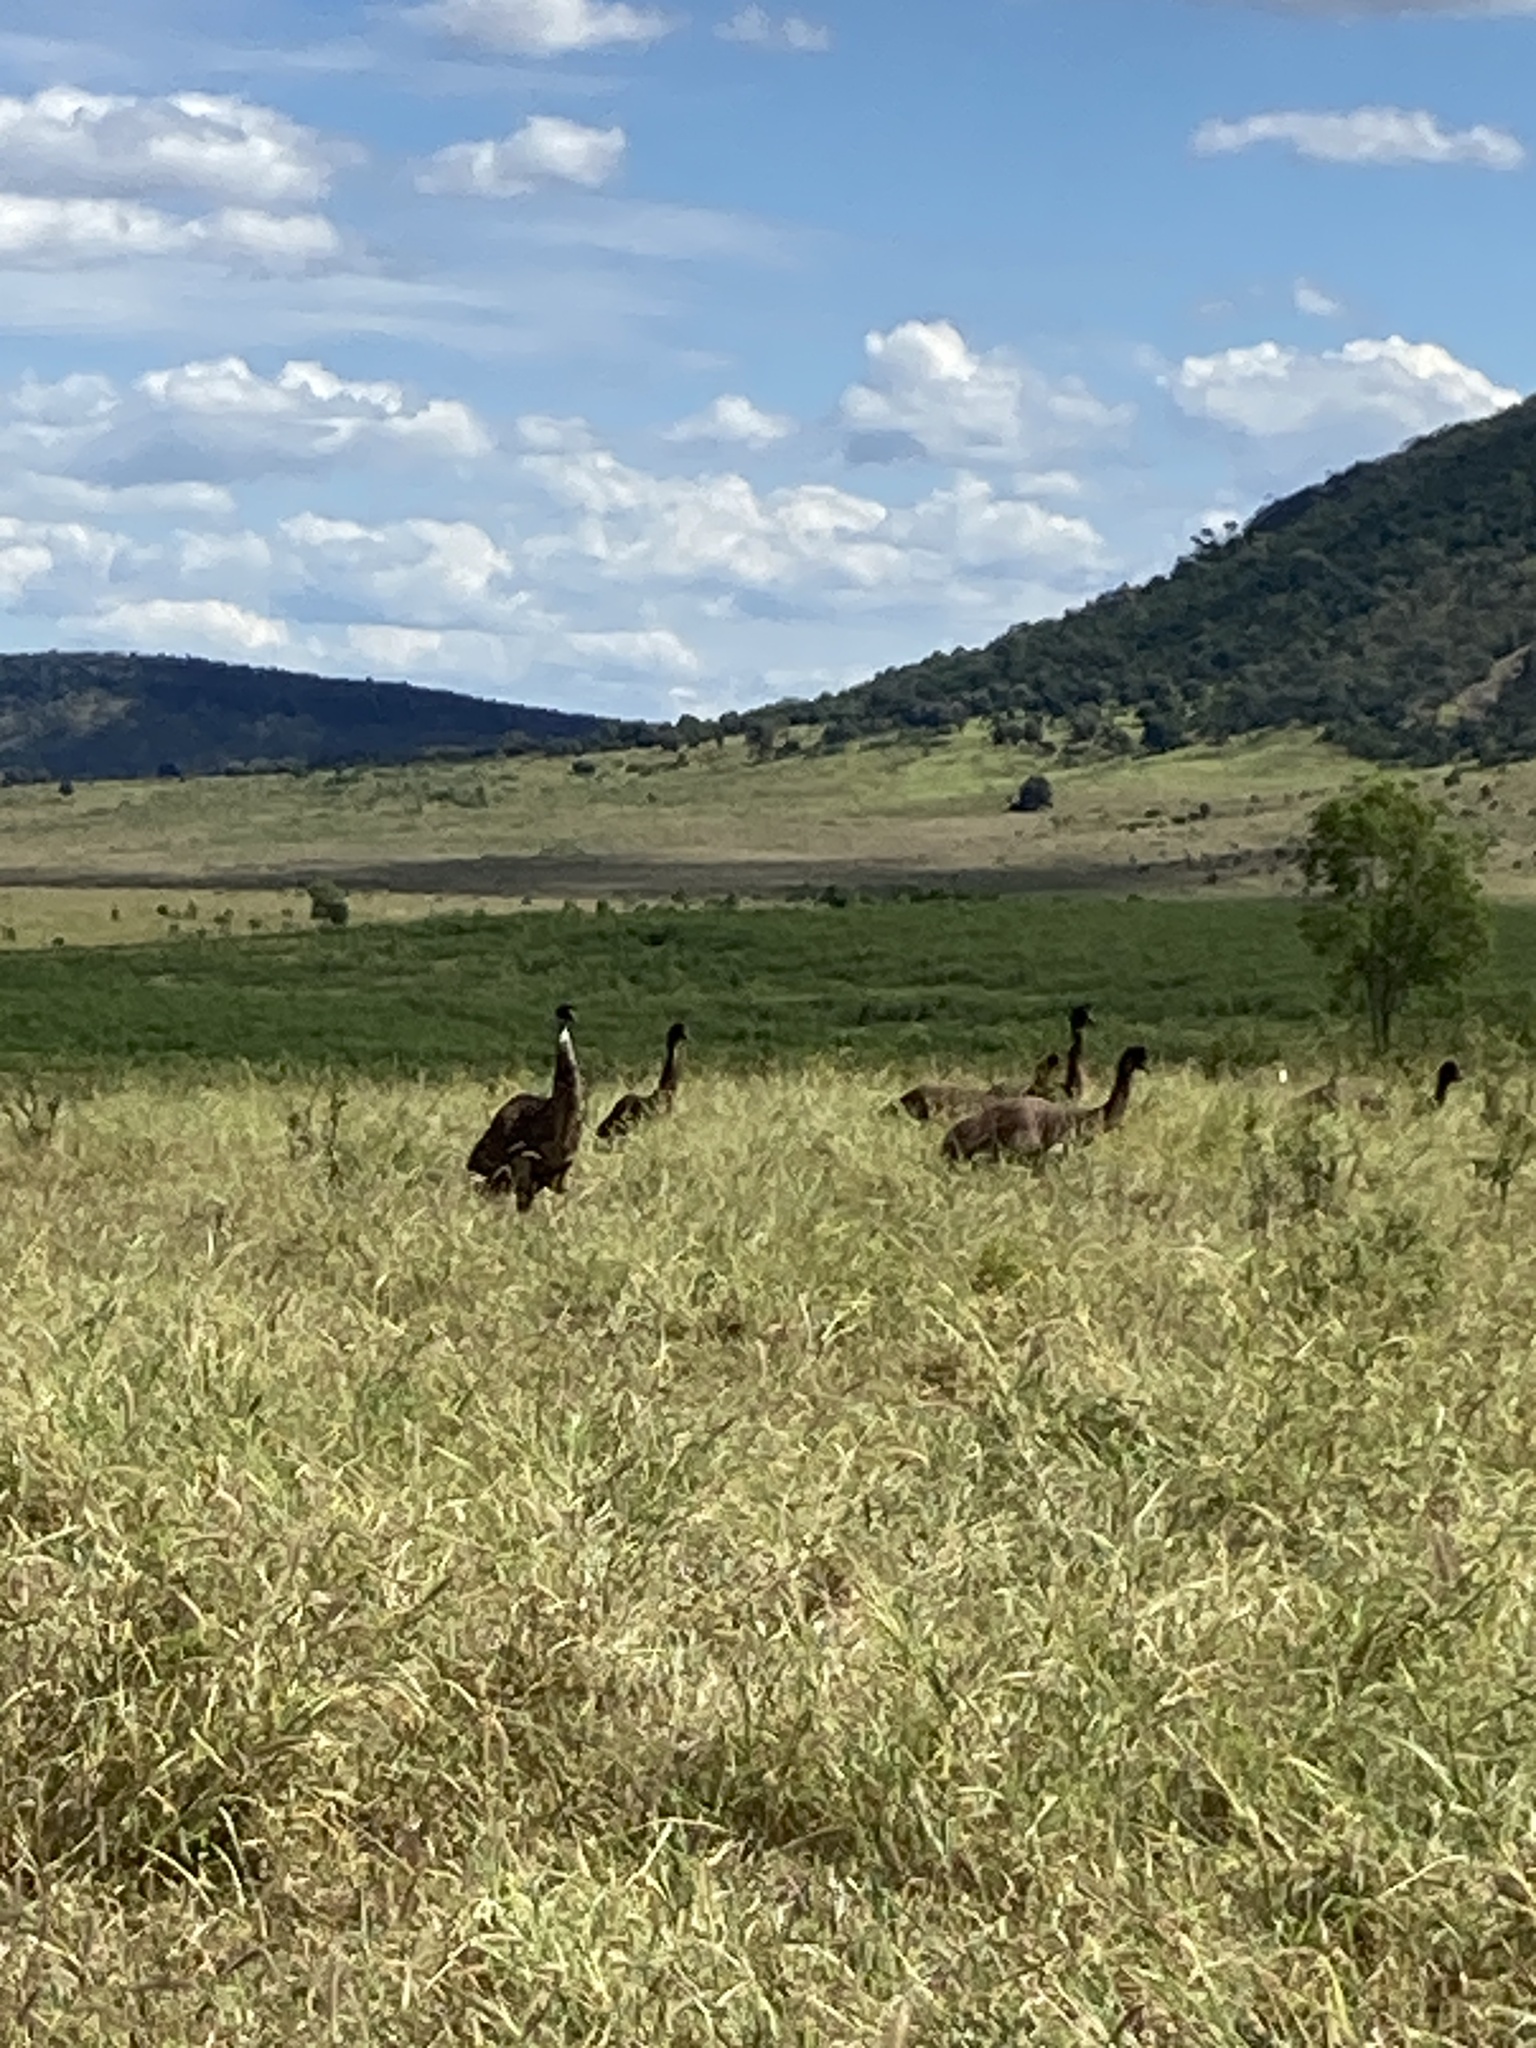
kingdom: Animalia
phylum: Chordata
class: Aves
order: Casuariiformes
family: Dromaiidae
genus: Dromaius
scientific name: Dromaius novaehollandiae
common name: Emu
